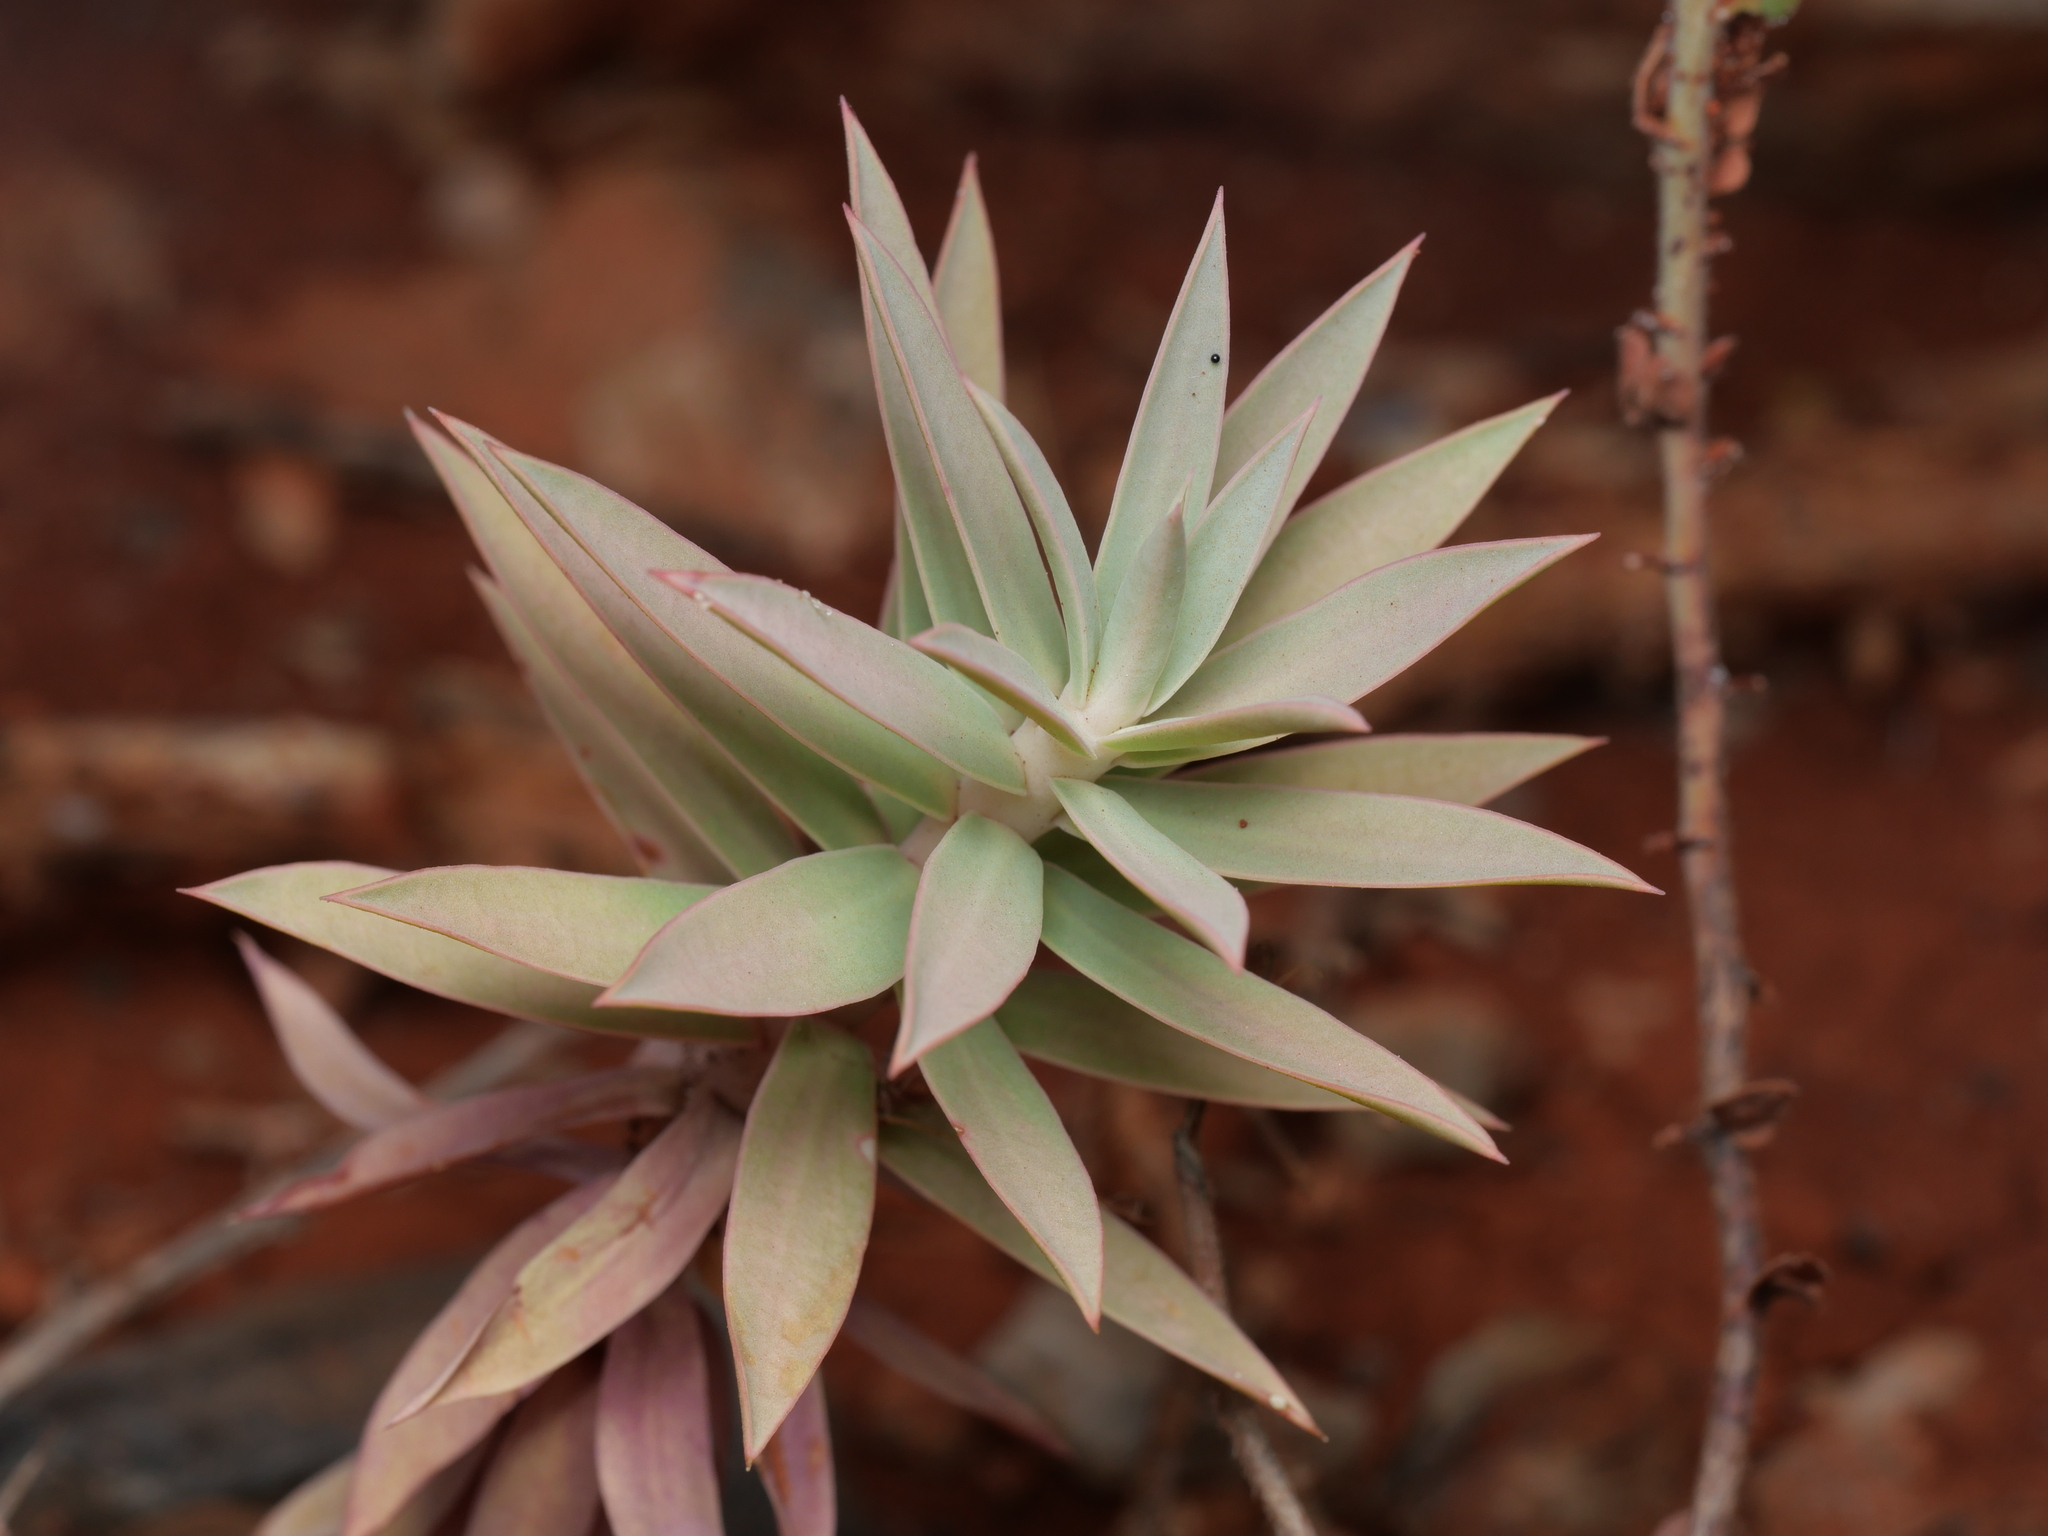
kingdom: Plantae
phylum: Tracheophyta
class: Magnoliopsida
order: Malpighiales
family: Euphorbiaceae
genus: Euphorbia
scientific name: Euphorbia rigida
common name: Upright myrtle spurge
